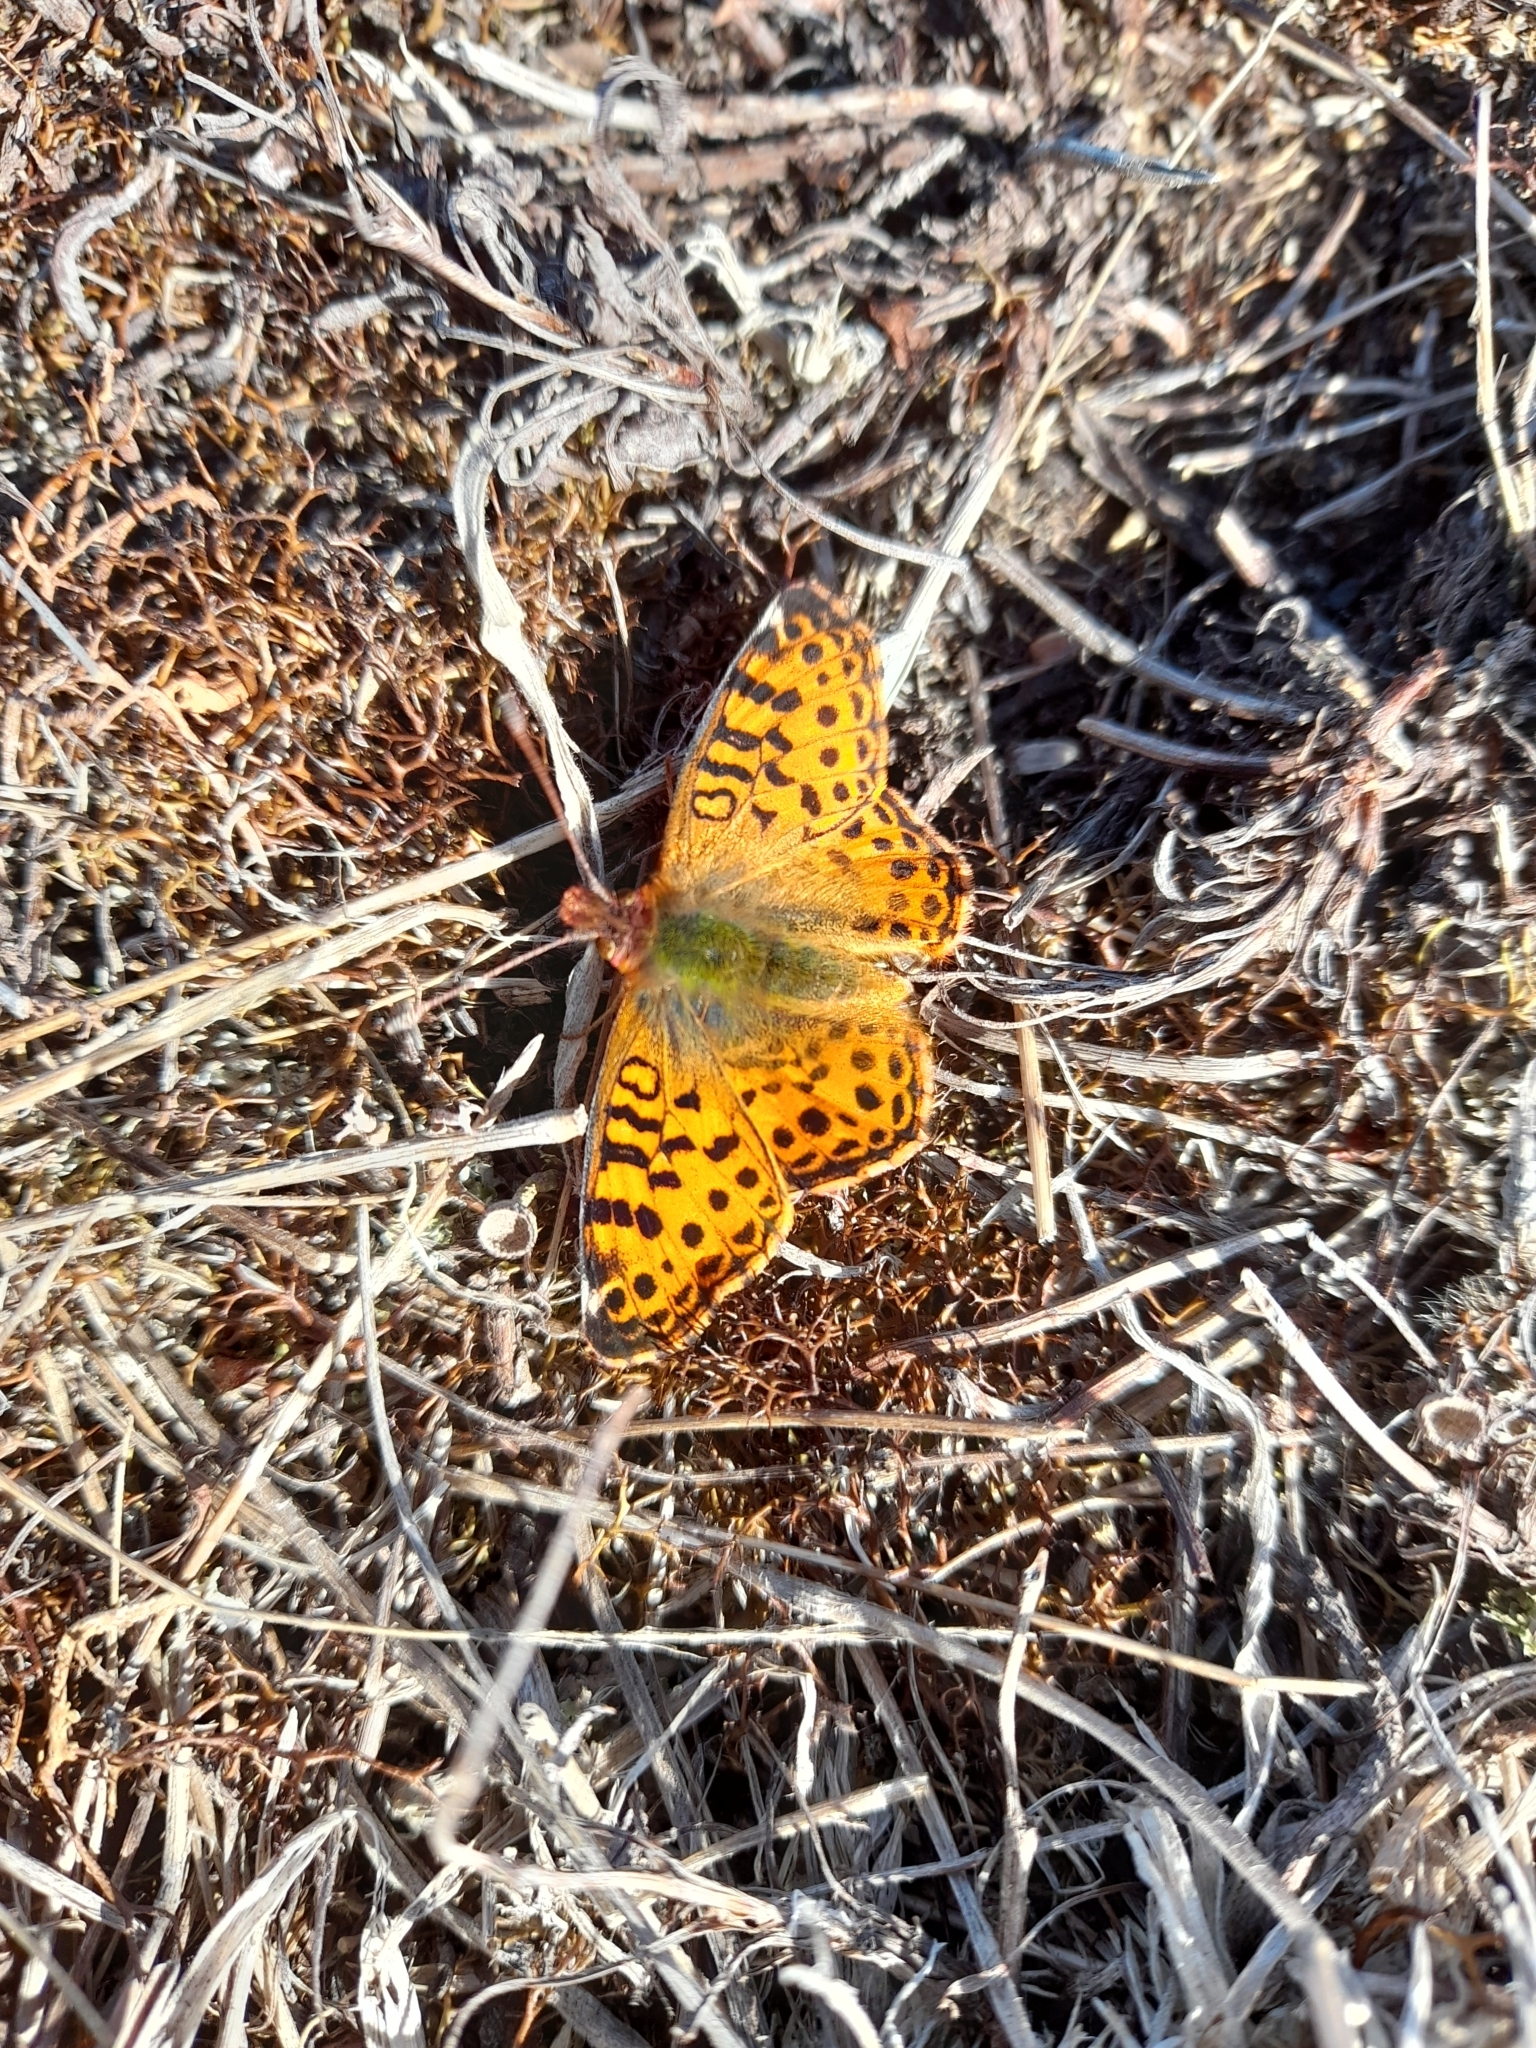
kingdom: Animalia
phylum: Arthropoda
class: Insecta
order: Lepidoptera
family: Nymphalidae
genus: Issoria
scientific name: Issoria Yramea cytheris
